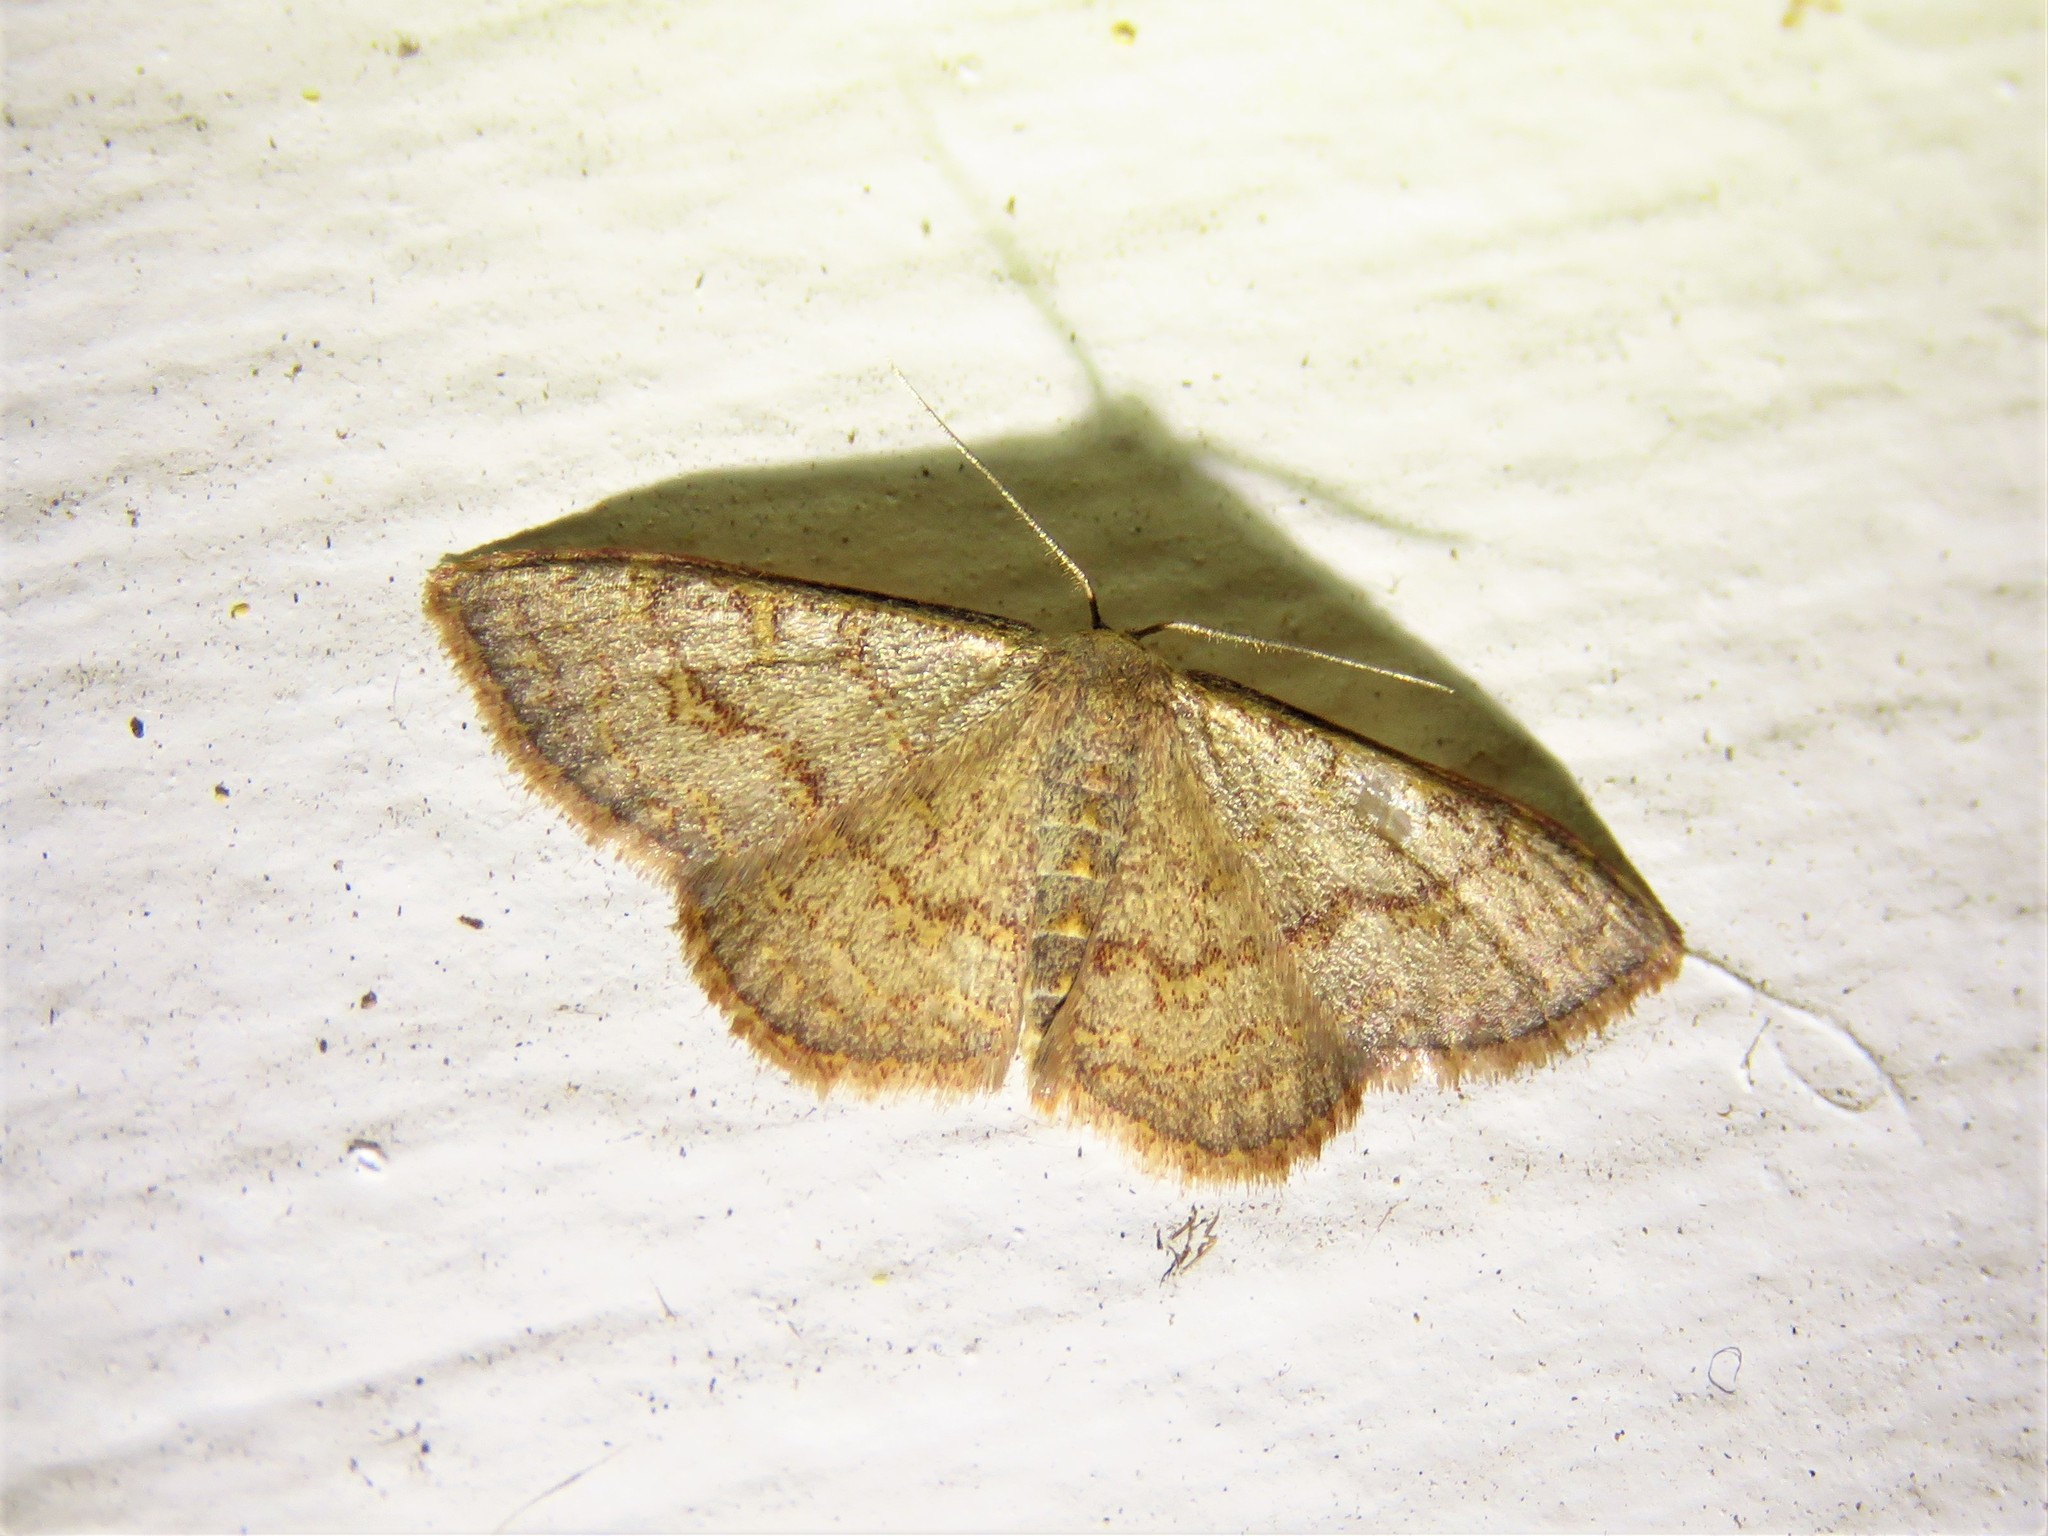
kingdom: Animalia
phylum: Arthropoda
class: Insecta
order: Lepidoptera
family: Geometridae
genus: Leptostales
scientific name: Leptostales pannaria
